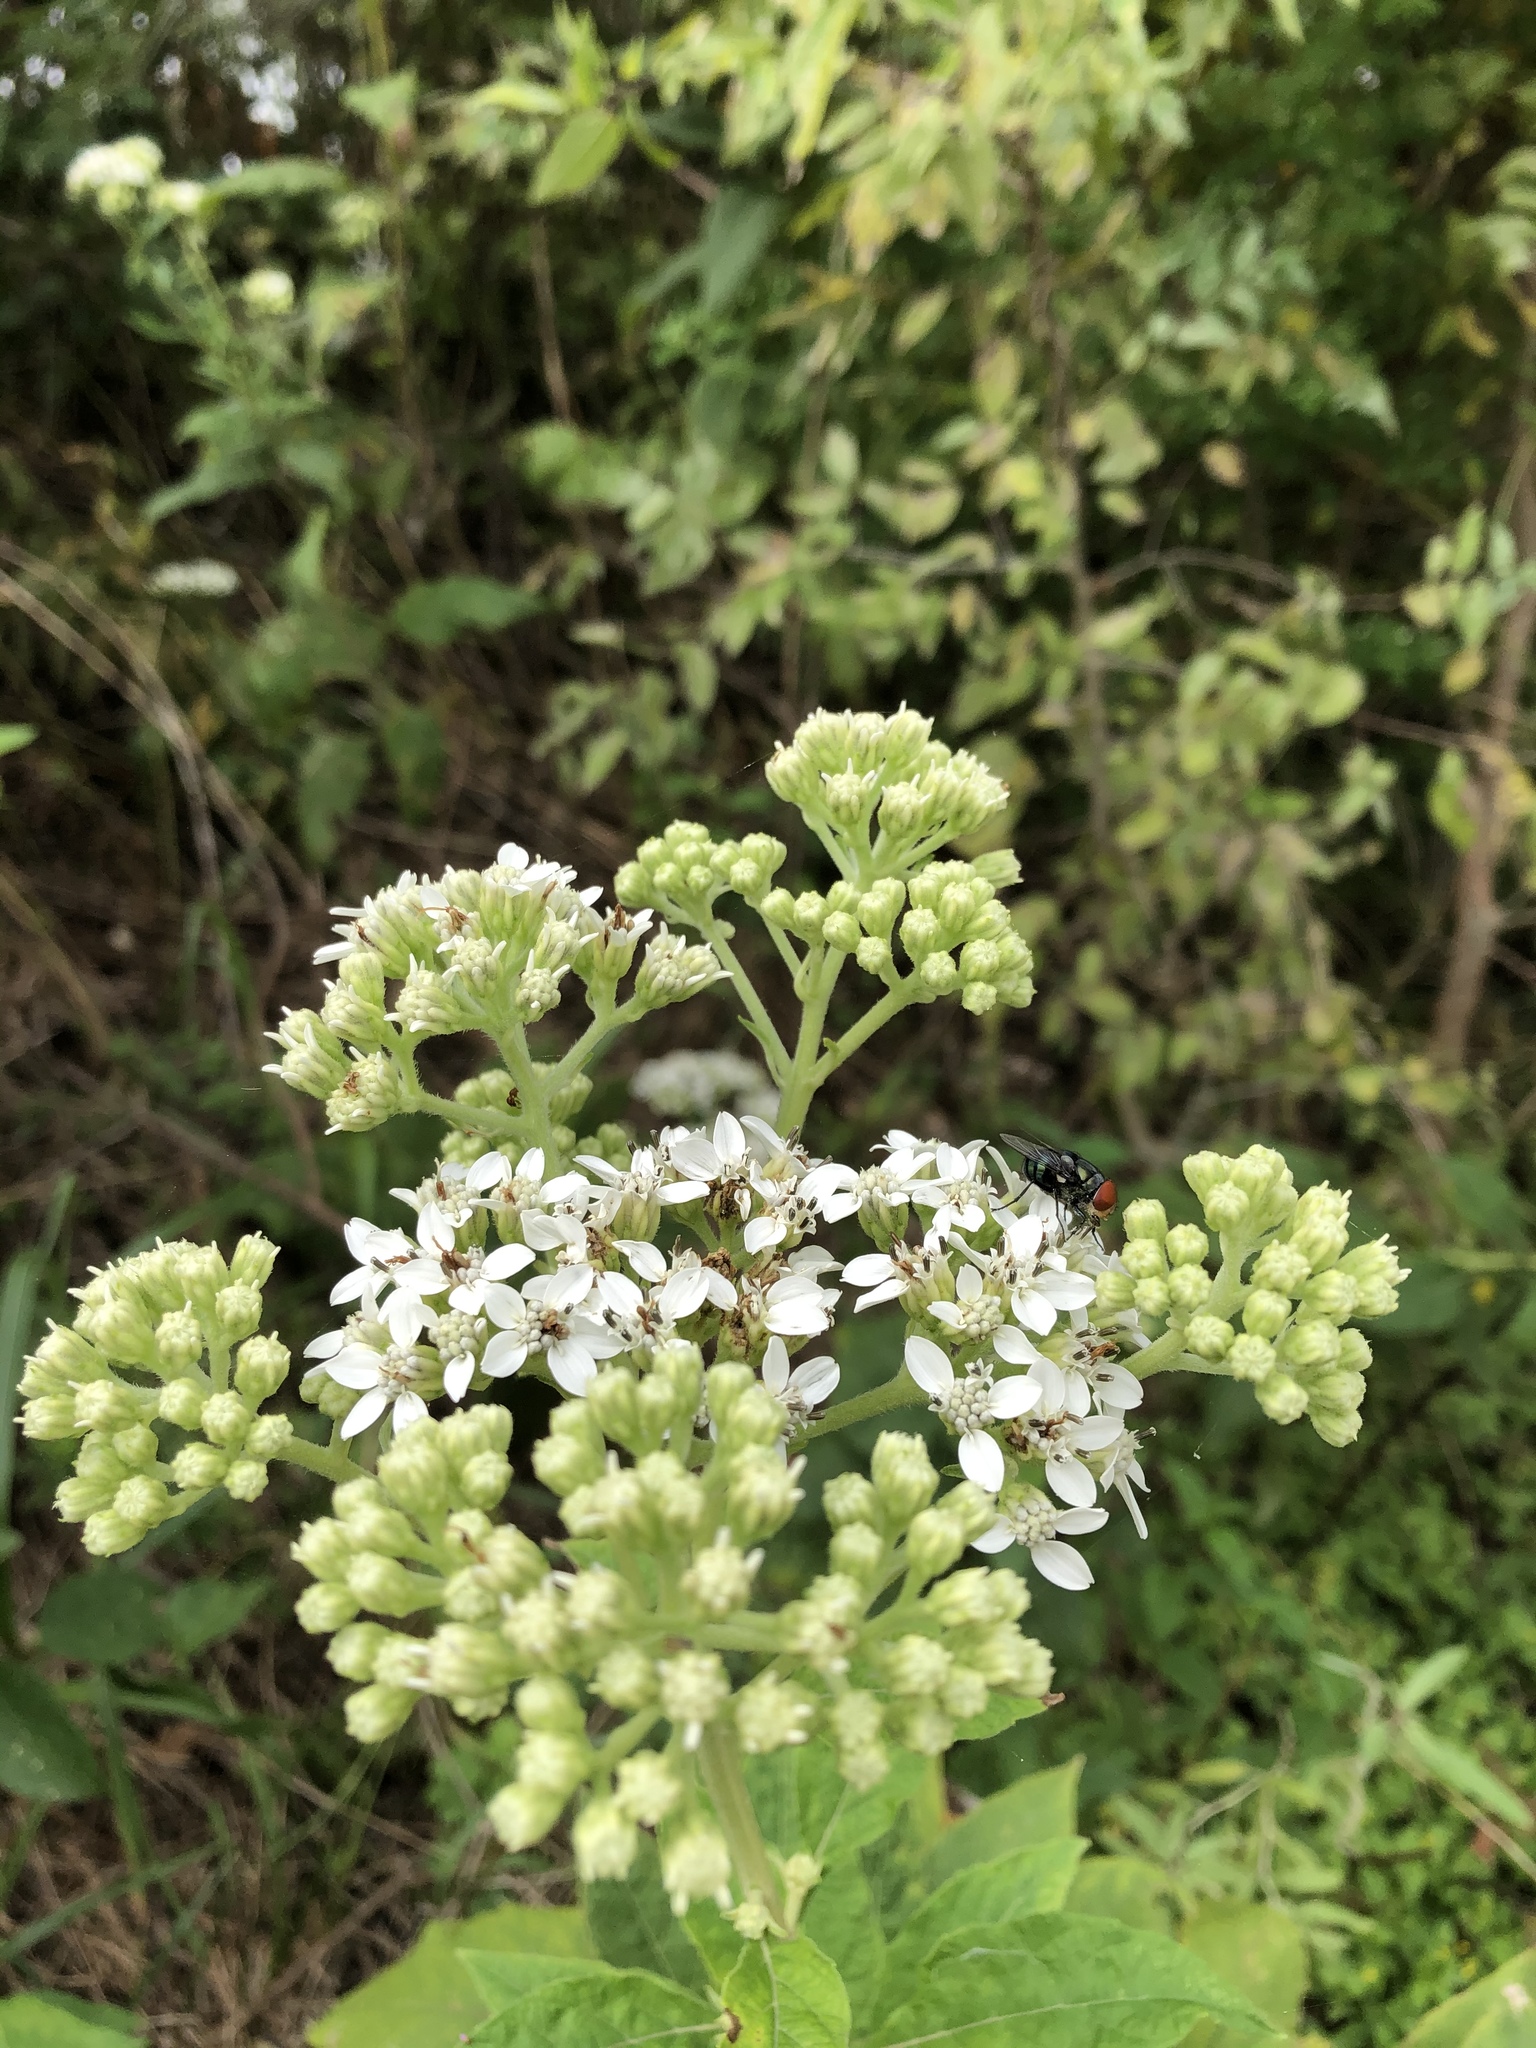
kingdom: Plantae
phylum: Tracheophyta
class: Magnoliopsida
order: Asterales
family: Asteraceae
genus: Verbesina
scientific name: Verbesina virginica
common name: Frostweed
